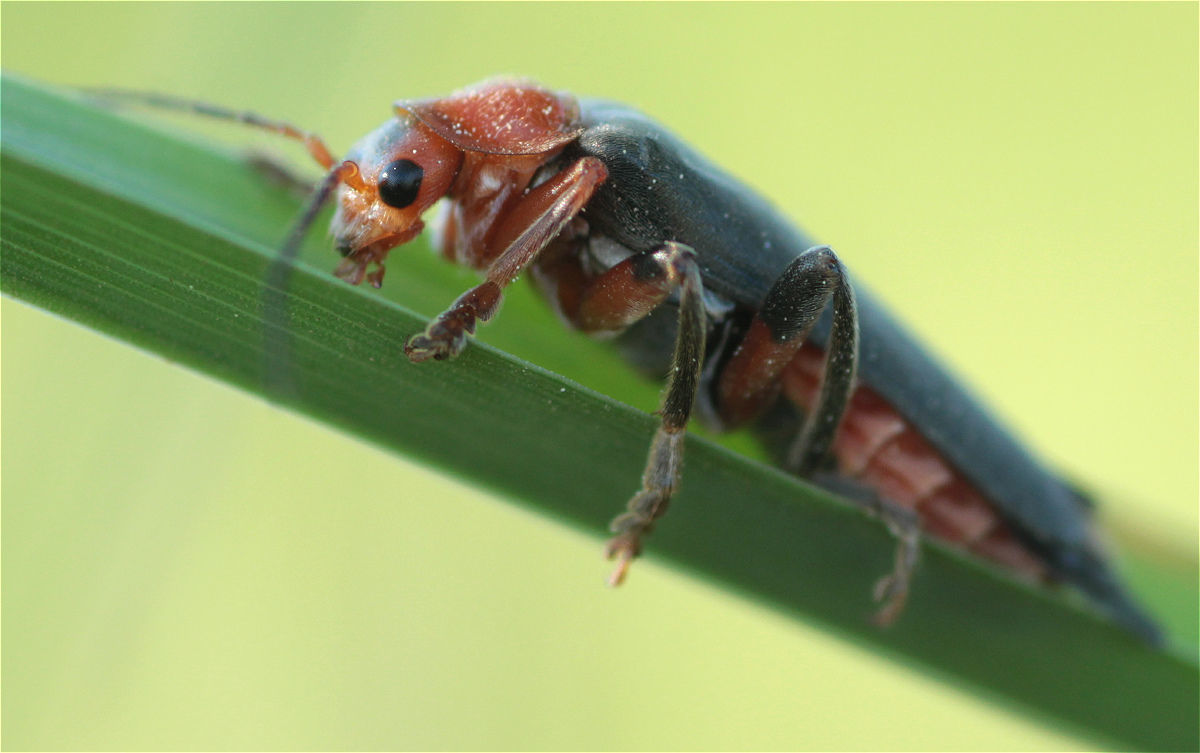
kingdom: Animalia
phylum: Arthropoda
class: Insecta
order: Coleoptera
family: Cantharidae
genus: Cantharis
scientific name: Cantharis livida
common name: Livid soldier beetle
